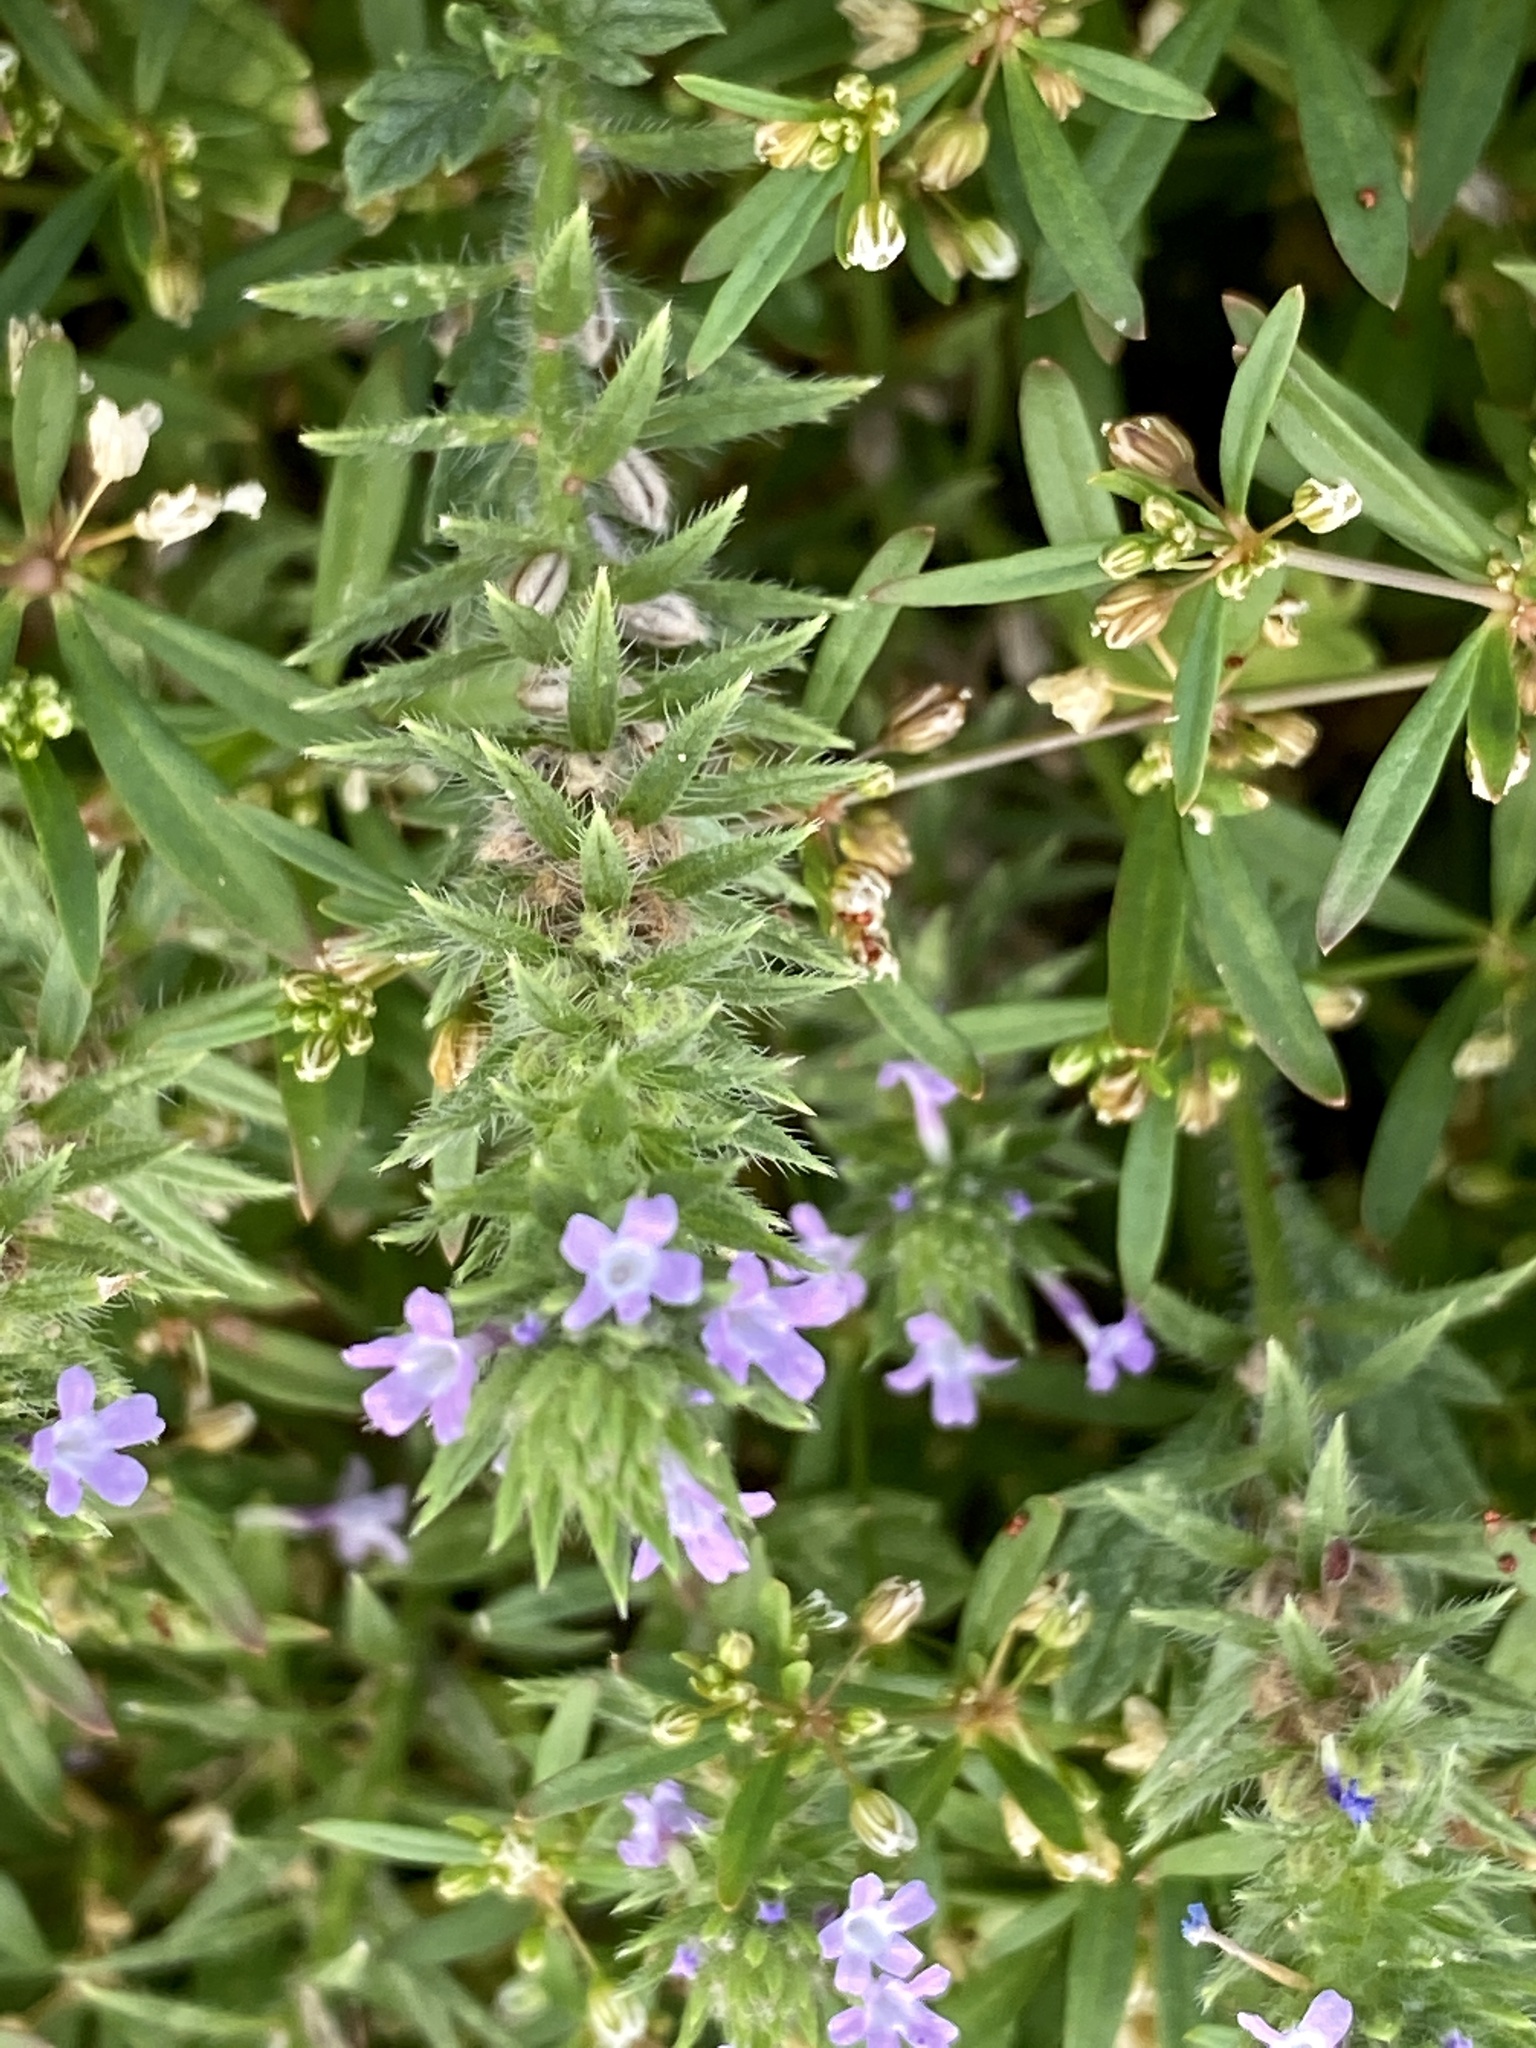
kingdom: Plantae
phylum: Tracheophyta
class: Magnoliopsida
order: Lamiales
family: Verbenaceae
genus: Verbena
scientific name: Verbena bracteata
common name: Bracted vervain
